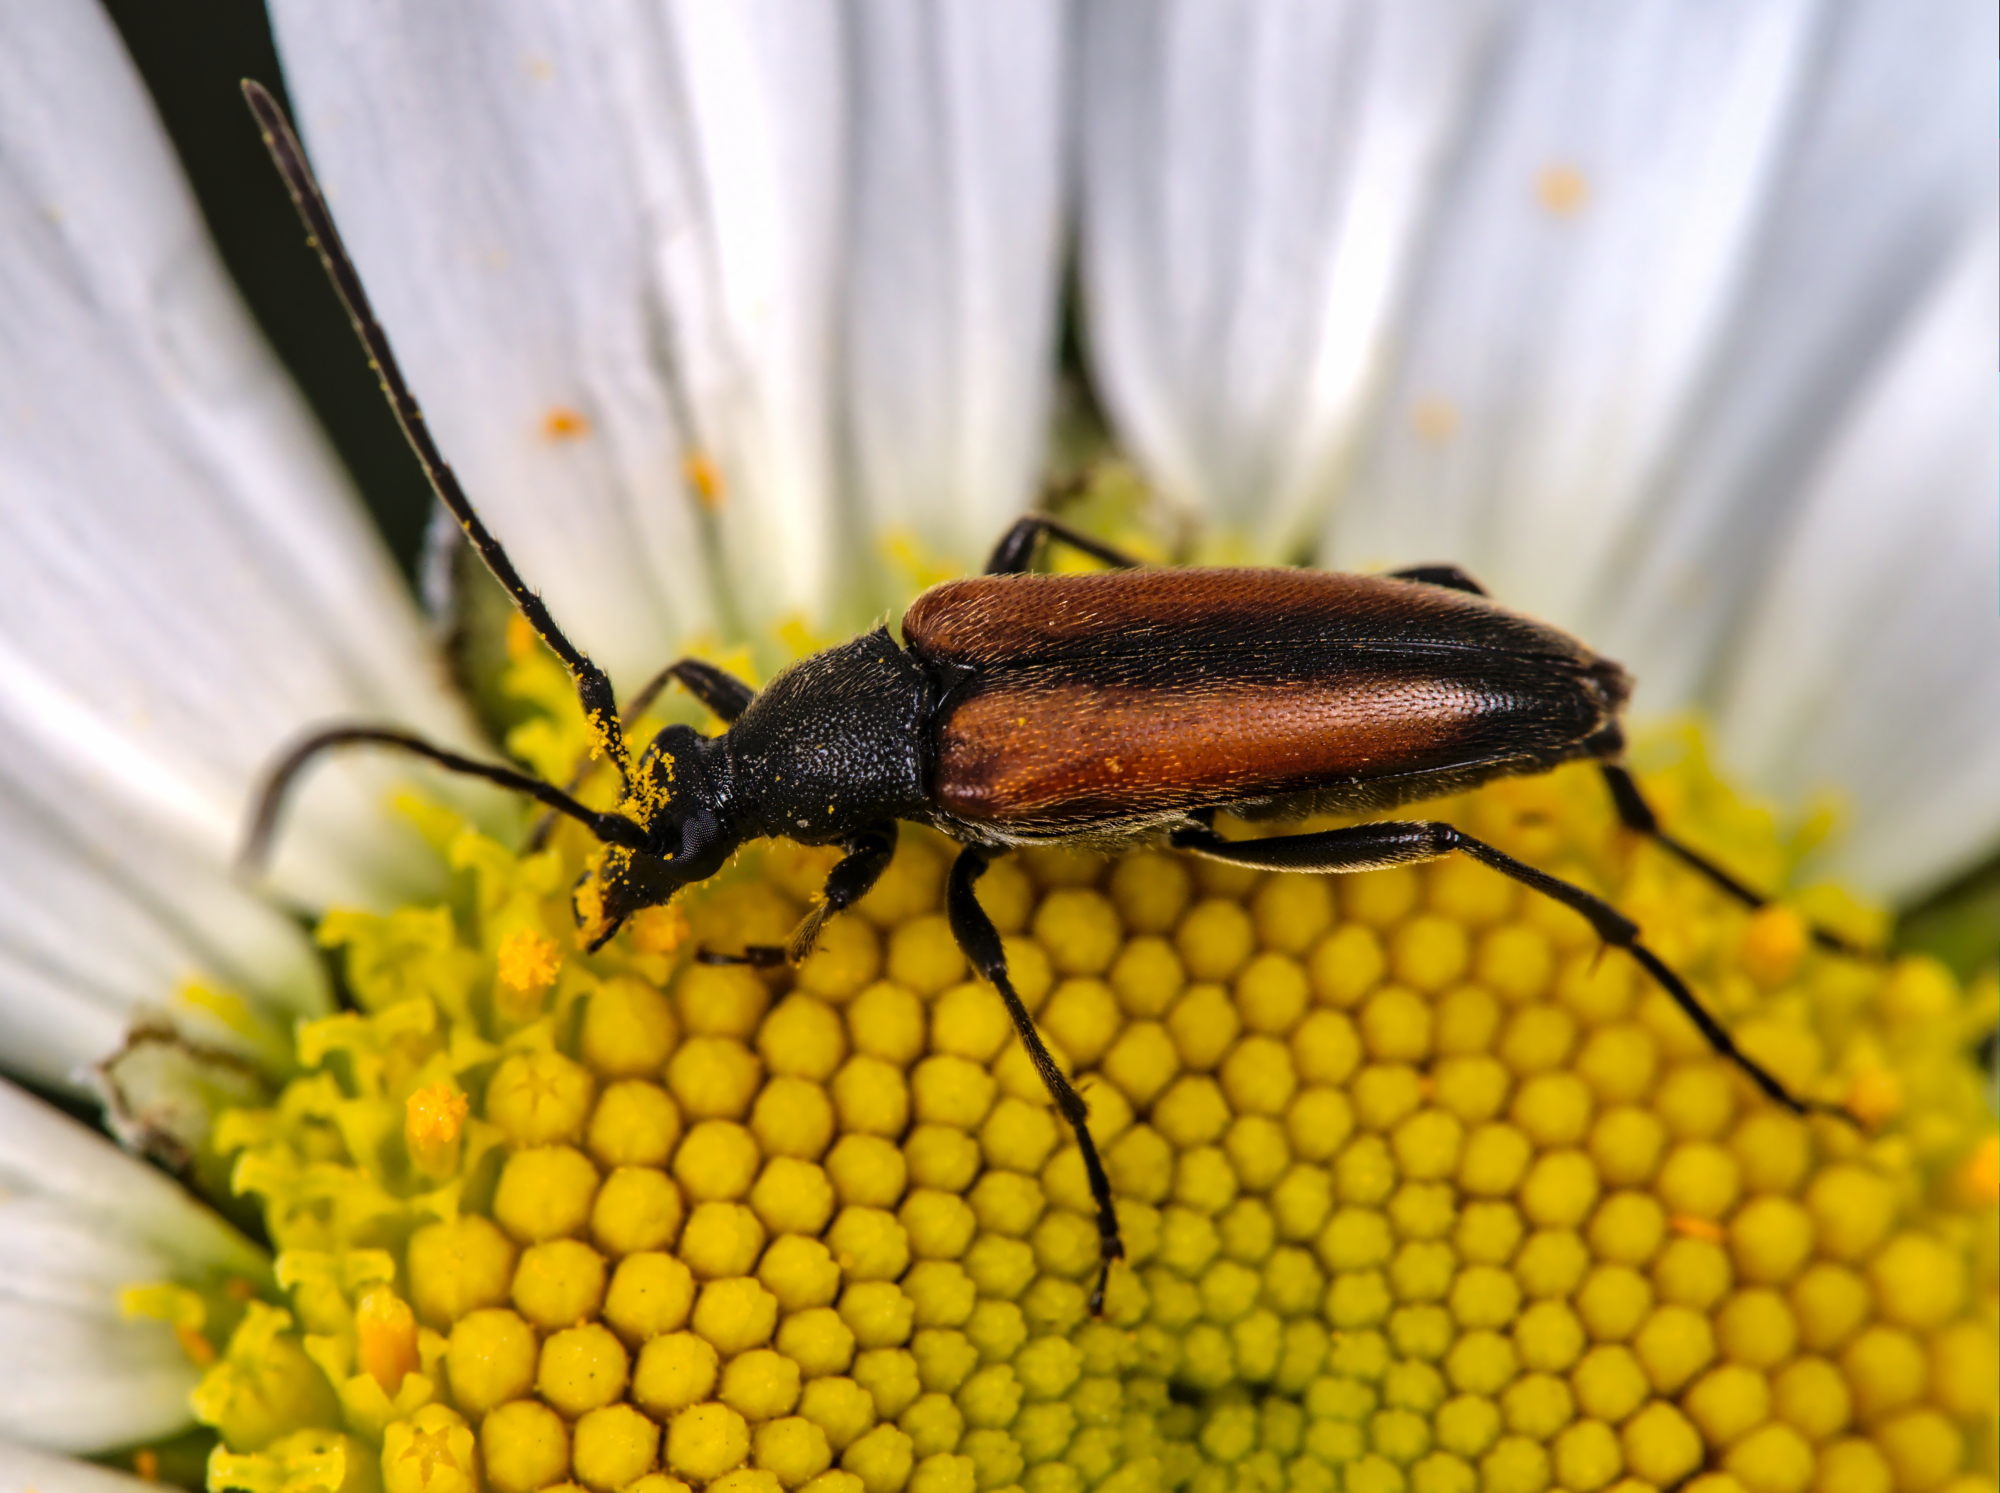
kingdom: Animalia
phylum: Arthropoda
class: Insecta
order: Coleoptera
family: Cerambycidae
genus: Stenurella
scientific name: Stenurella melanura
